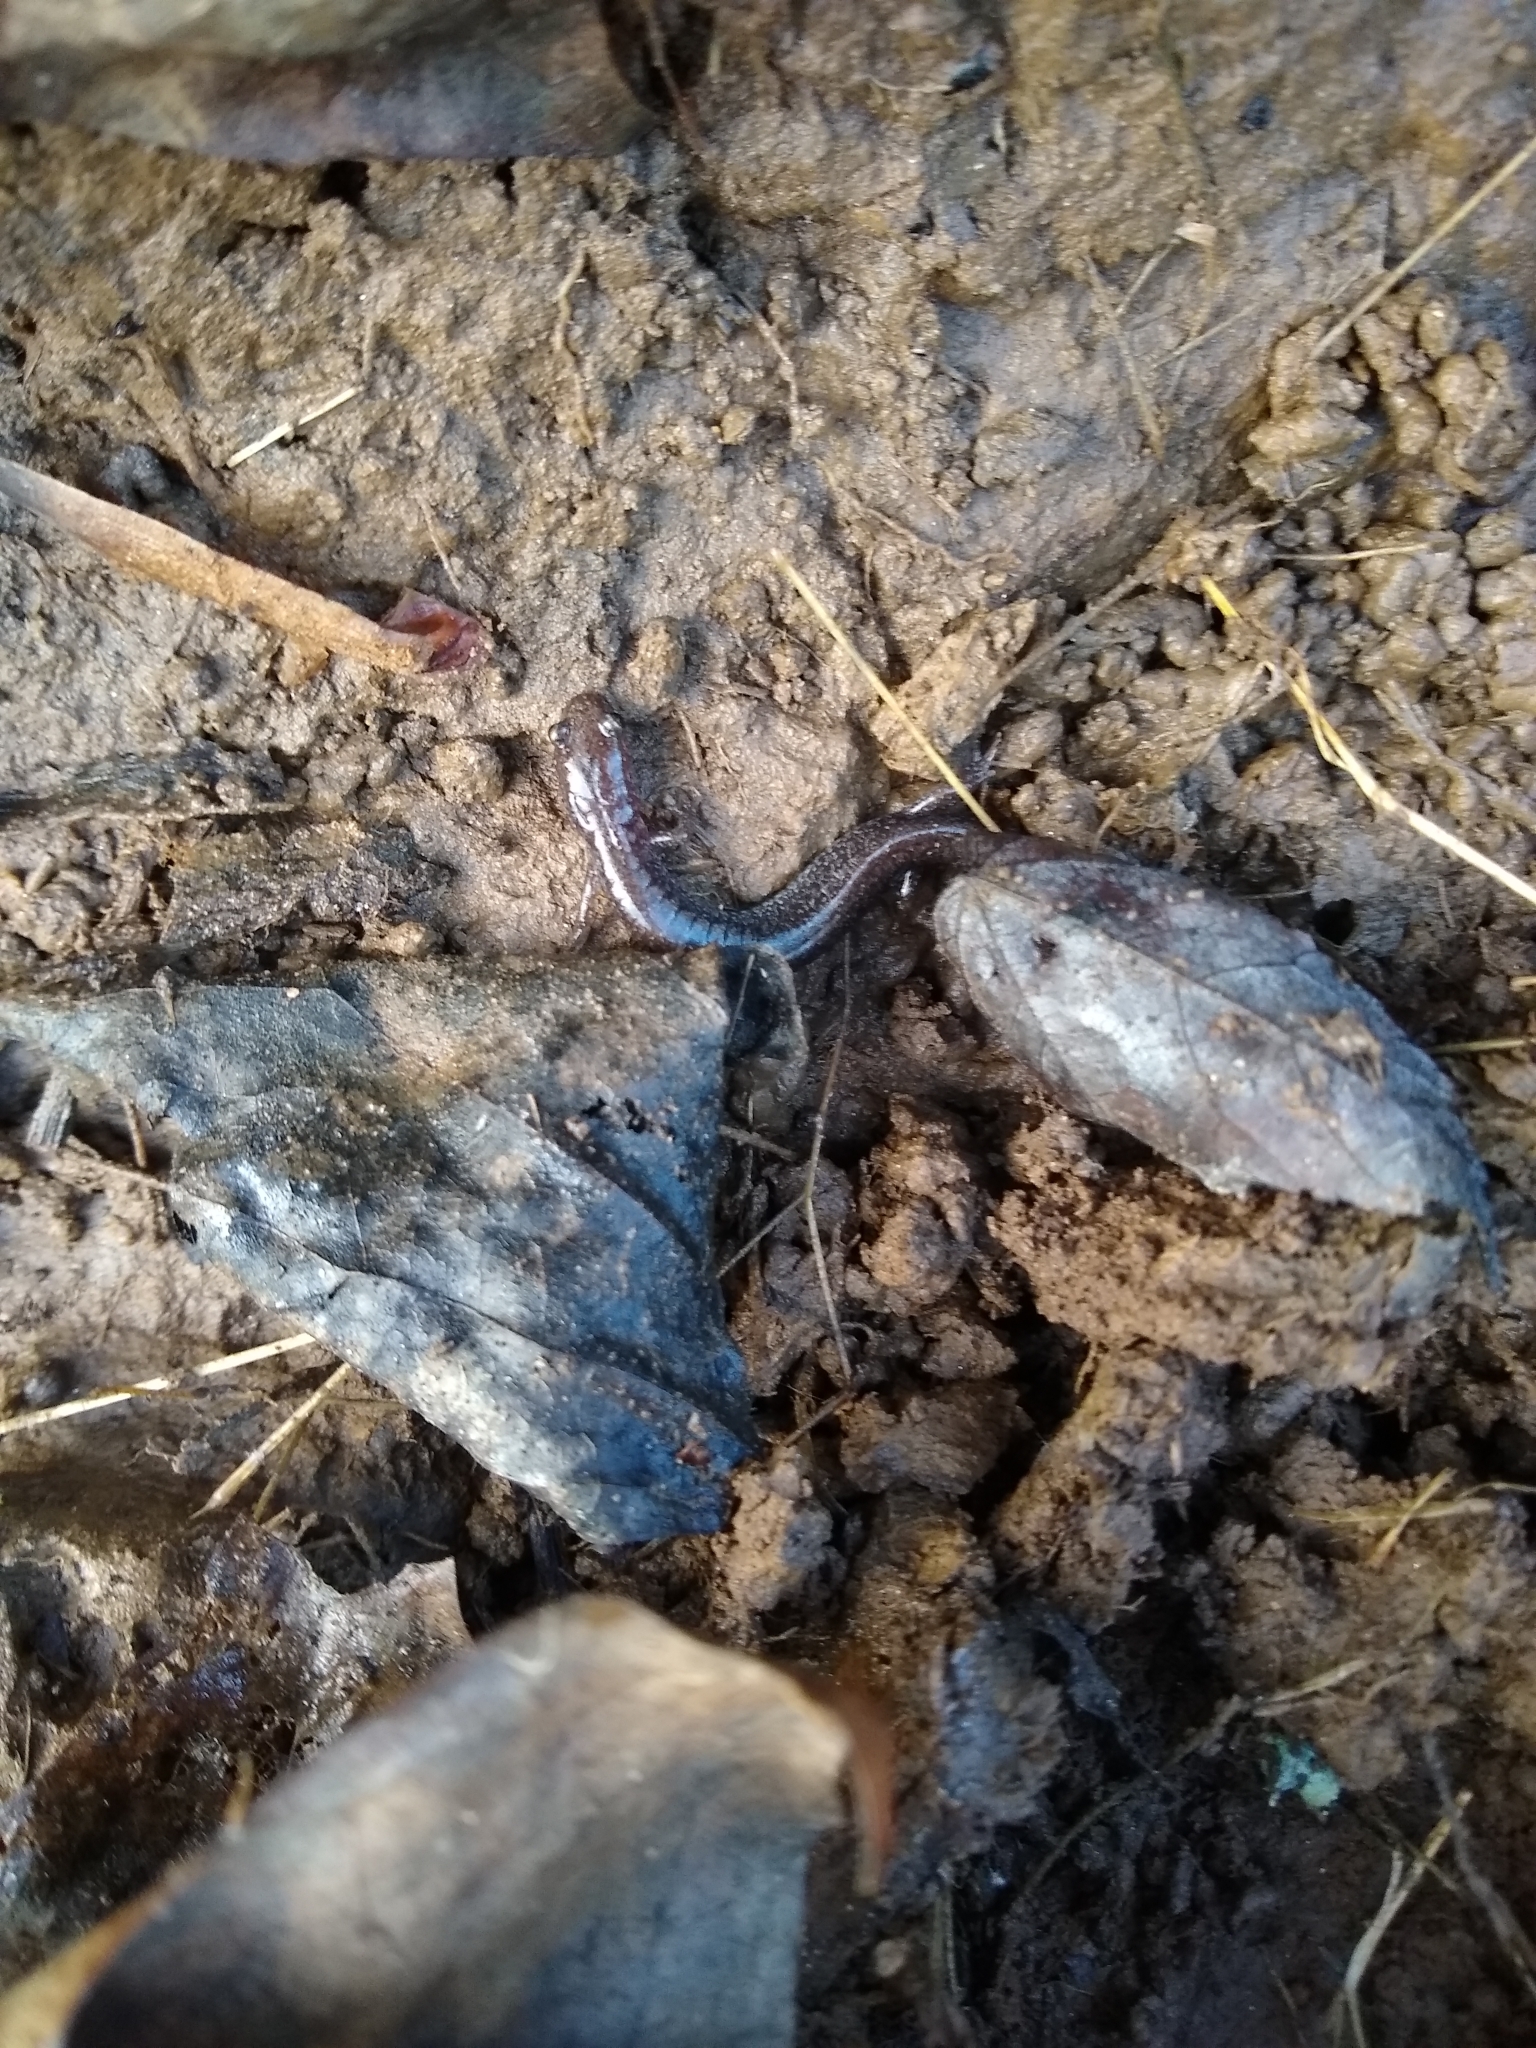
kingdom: Animalia
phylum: Chordata
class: Amphibia
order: Caudata
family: Plethodontidae
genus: Plethodon
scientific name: Plethodon cinereus
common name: Redback salamander
